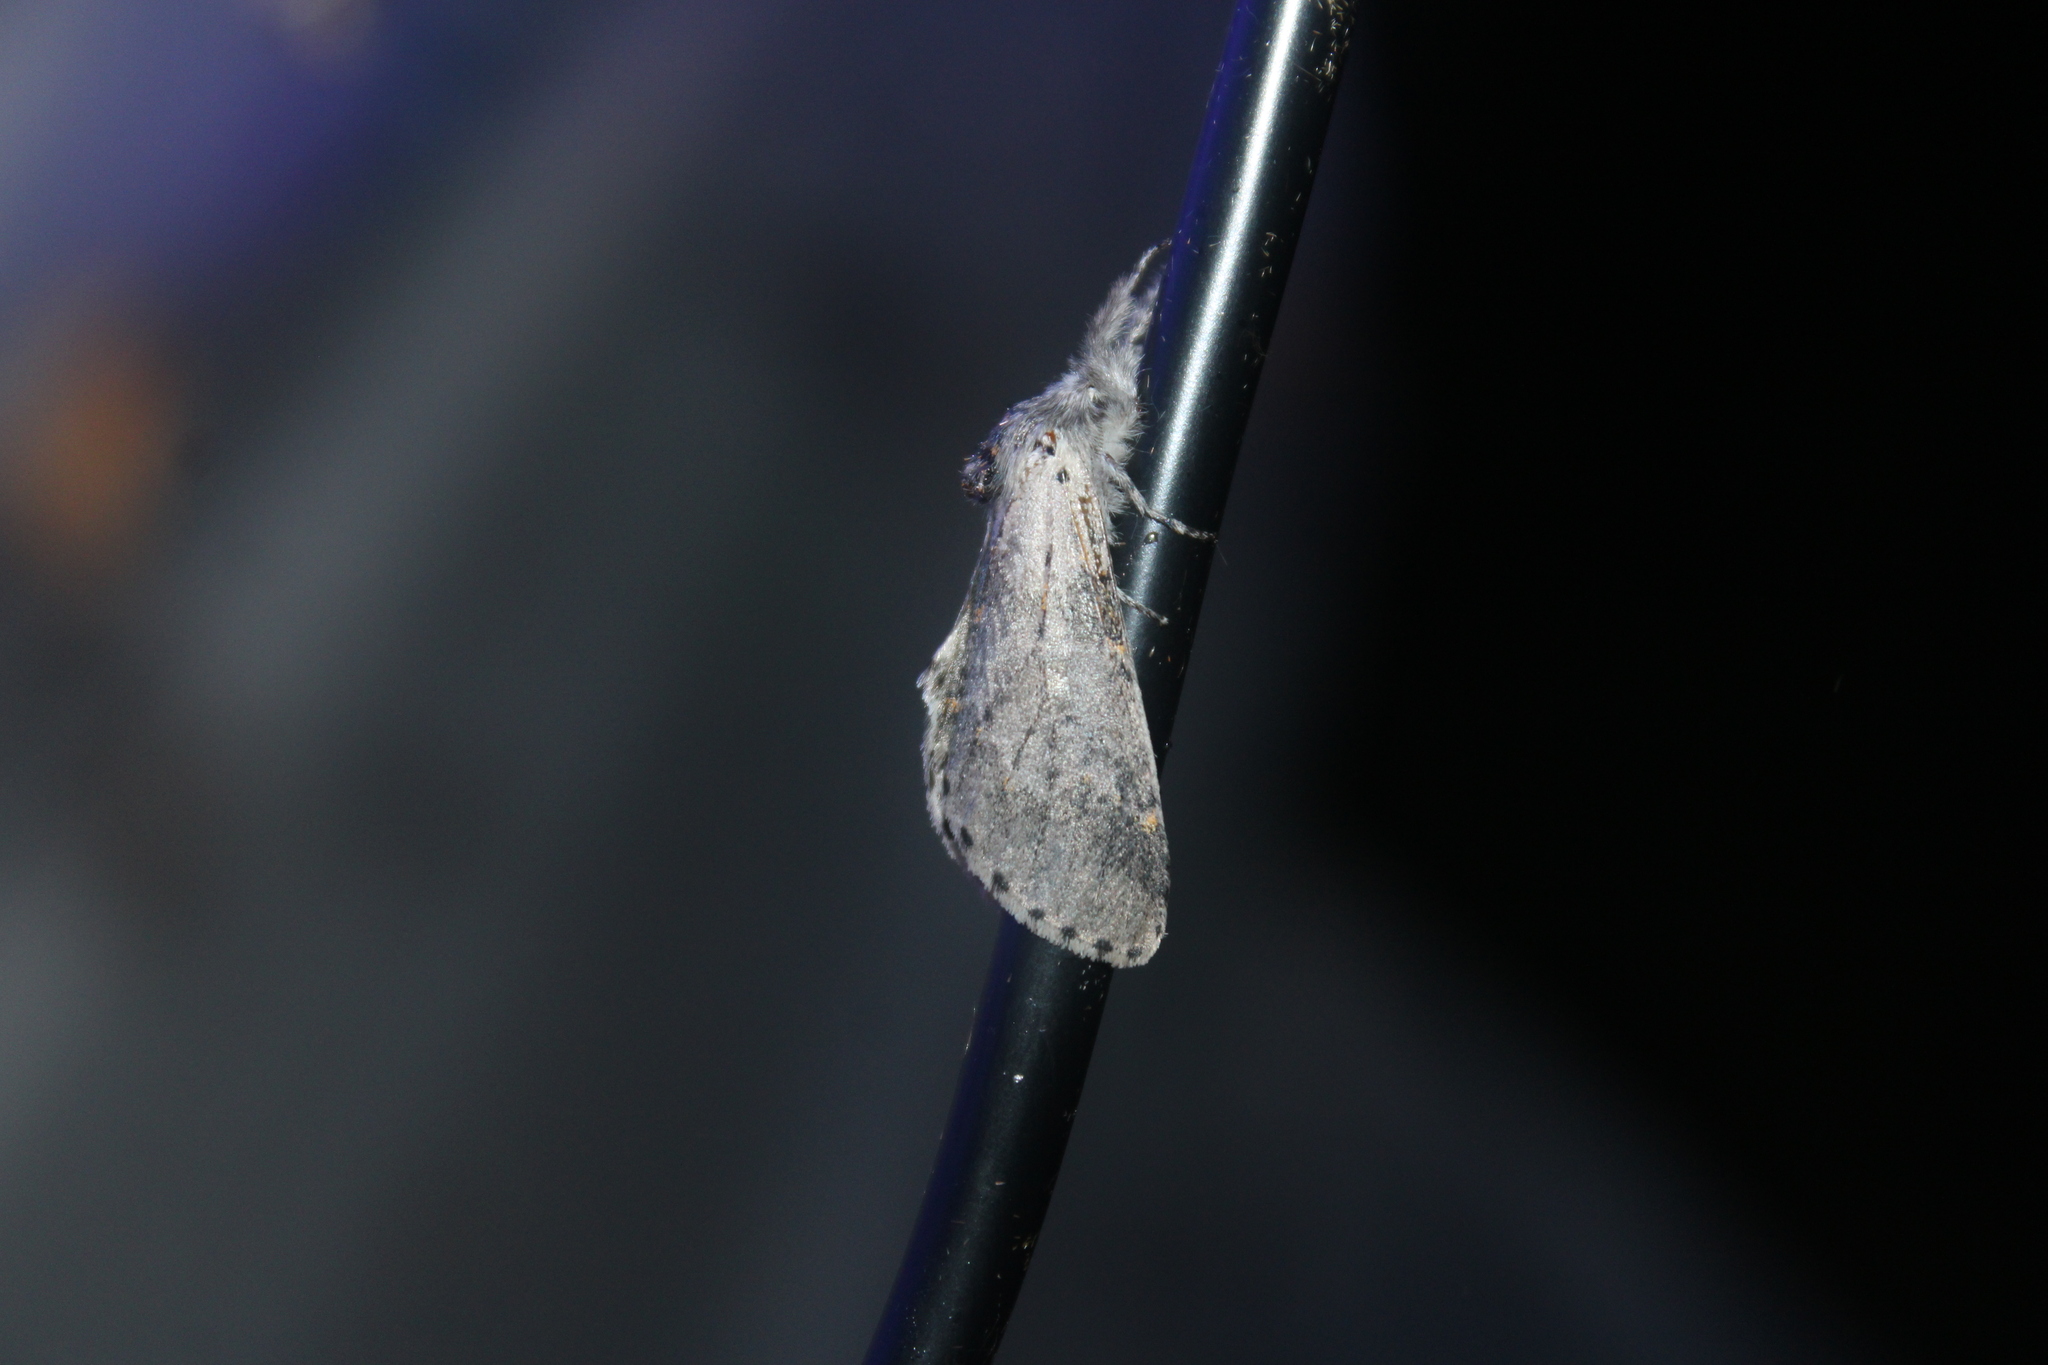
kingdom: Animalia
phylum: Arthropoda
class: Insecta
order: Lepidoptera
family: Notodontidae
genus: Furcula
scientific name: Furcula cinerea
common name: Gray furcula
